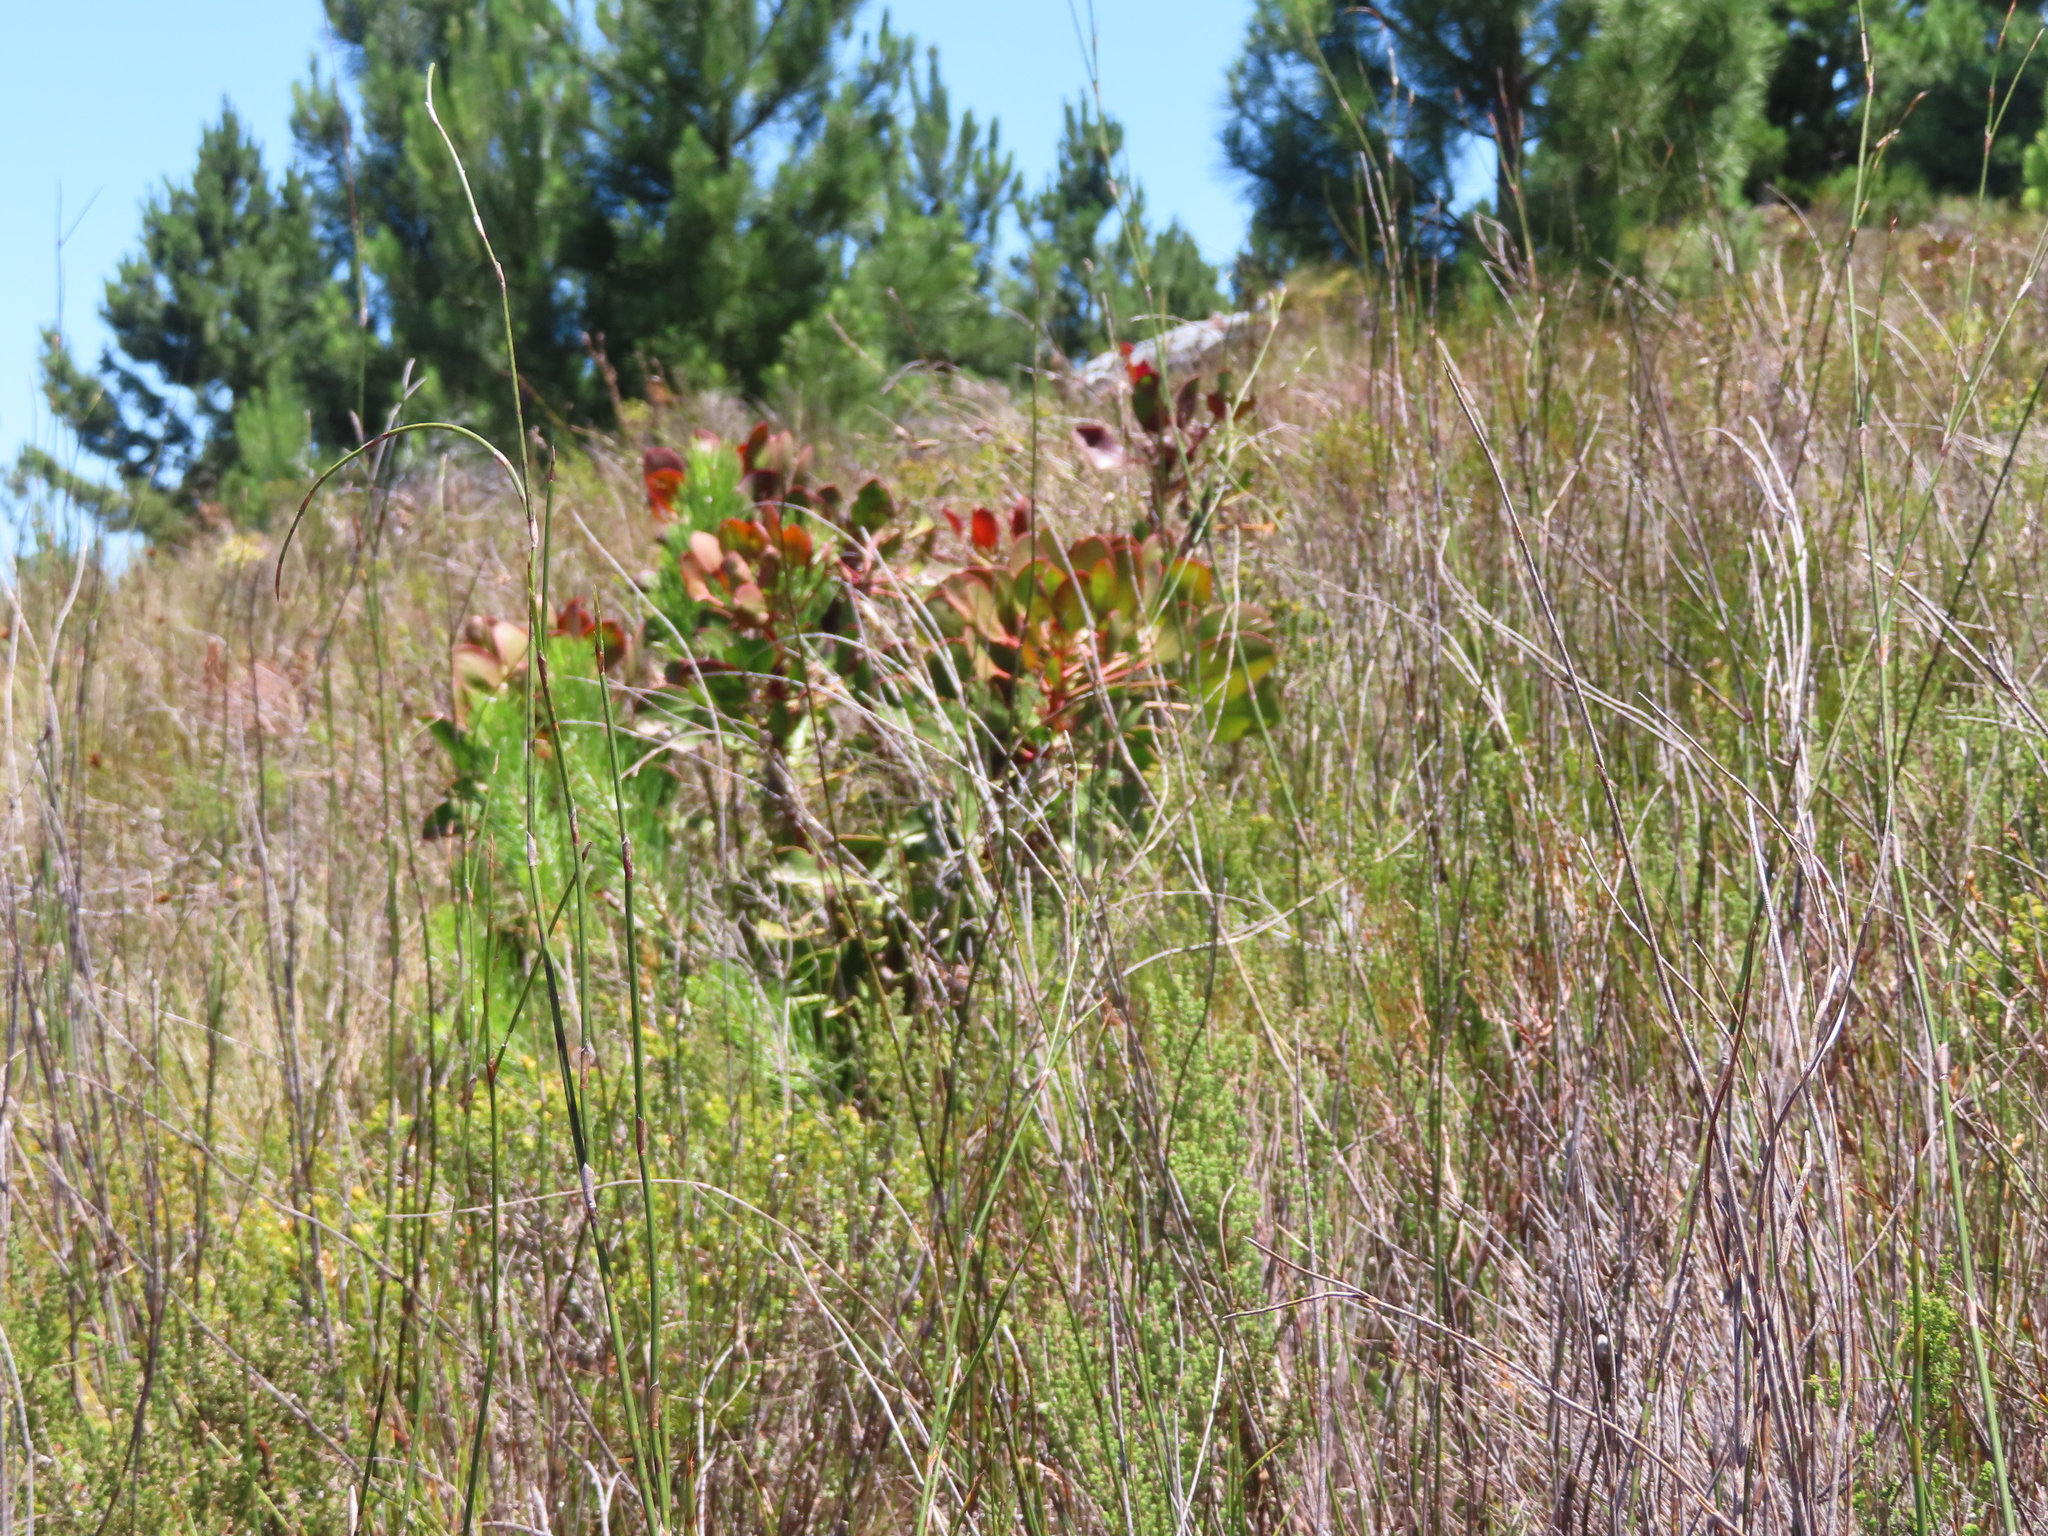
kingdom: Plantae
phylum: Tracheophyta
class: Magnoliopsida
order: Proteales
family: Proteaceae
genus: Protea
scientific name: Protea cynaroides
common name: King protea
